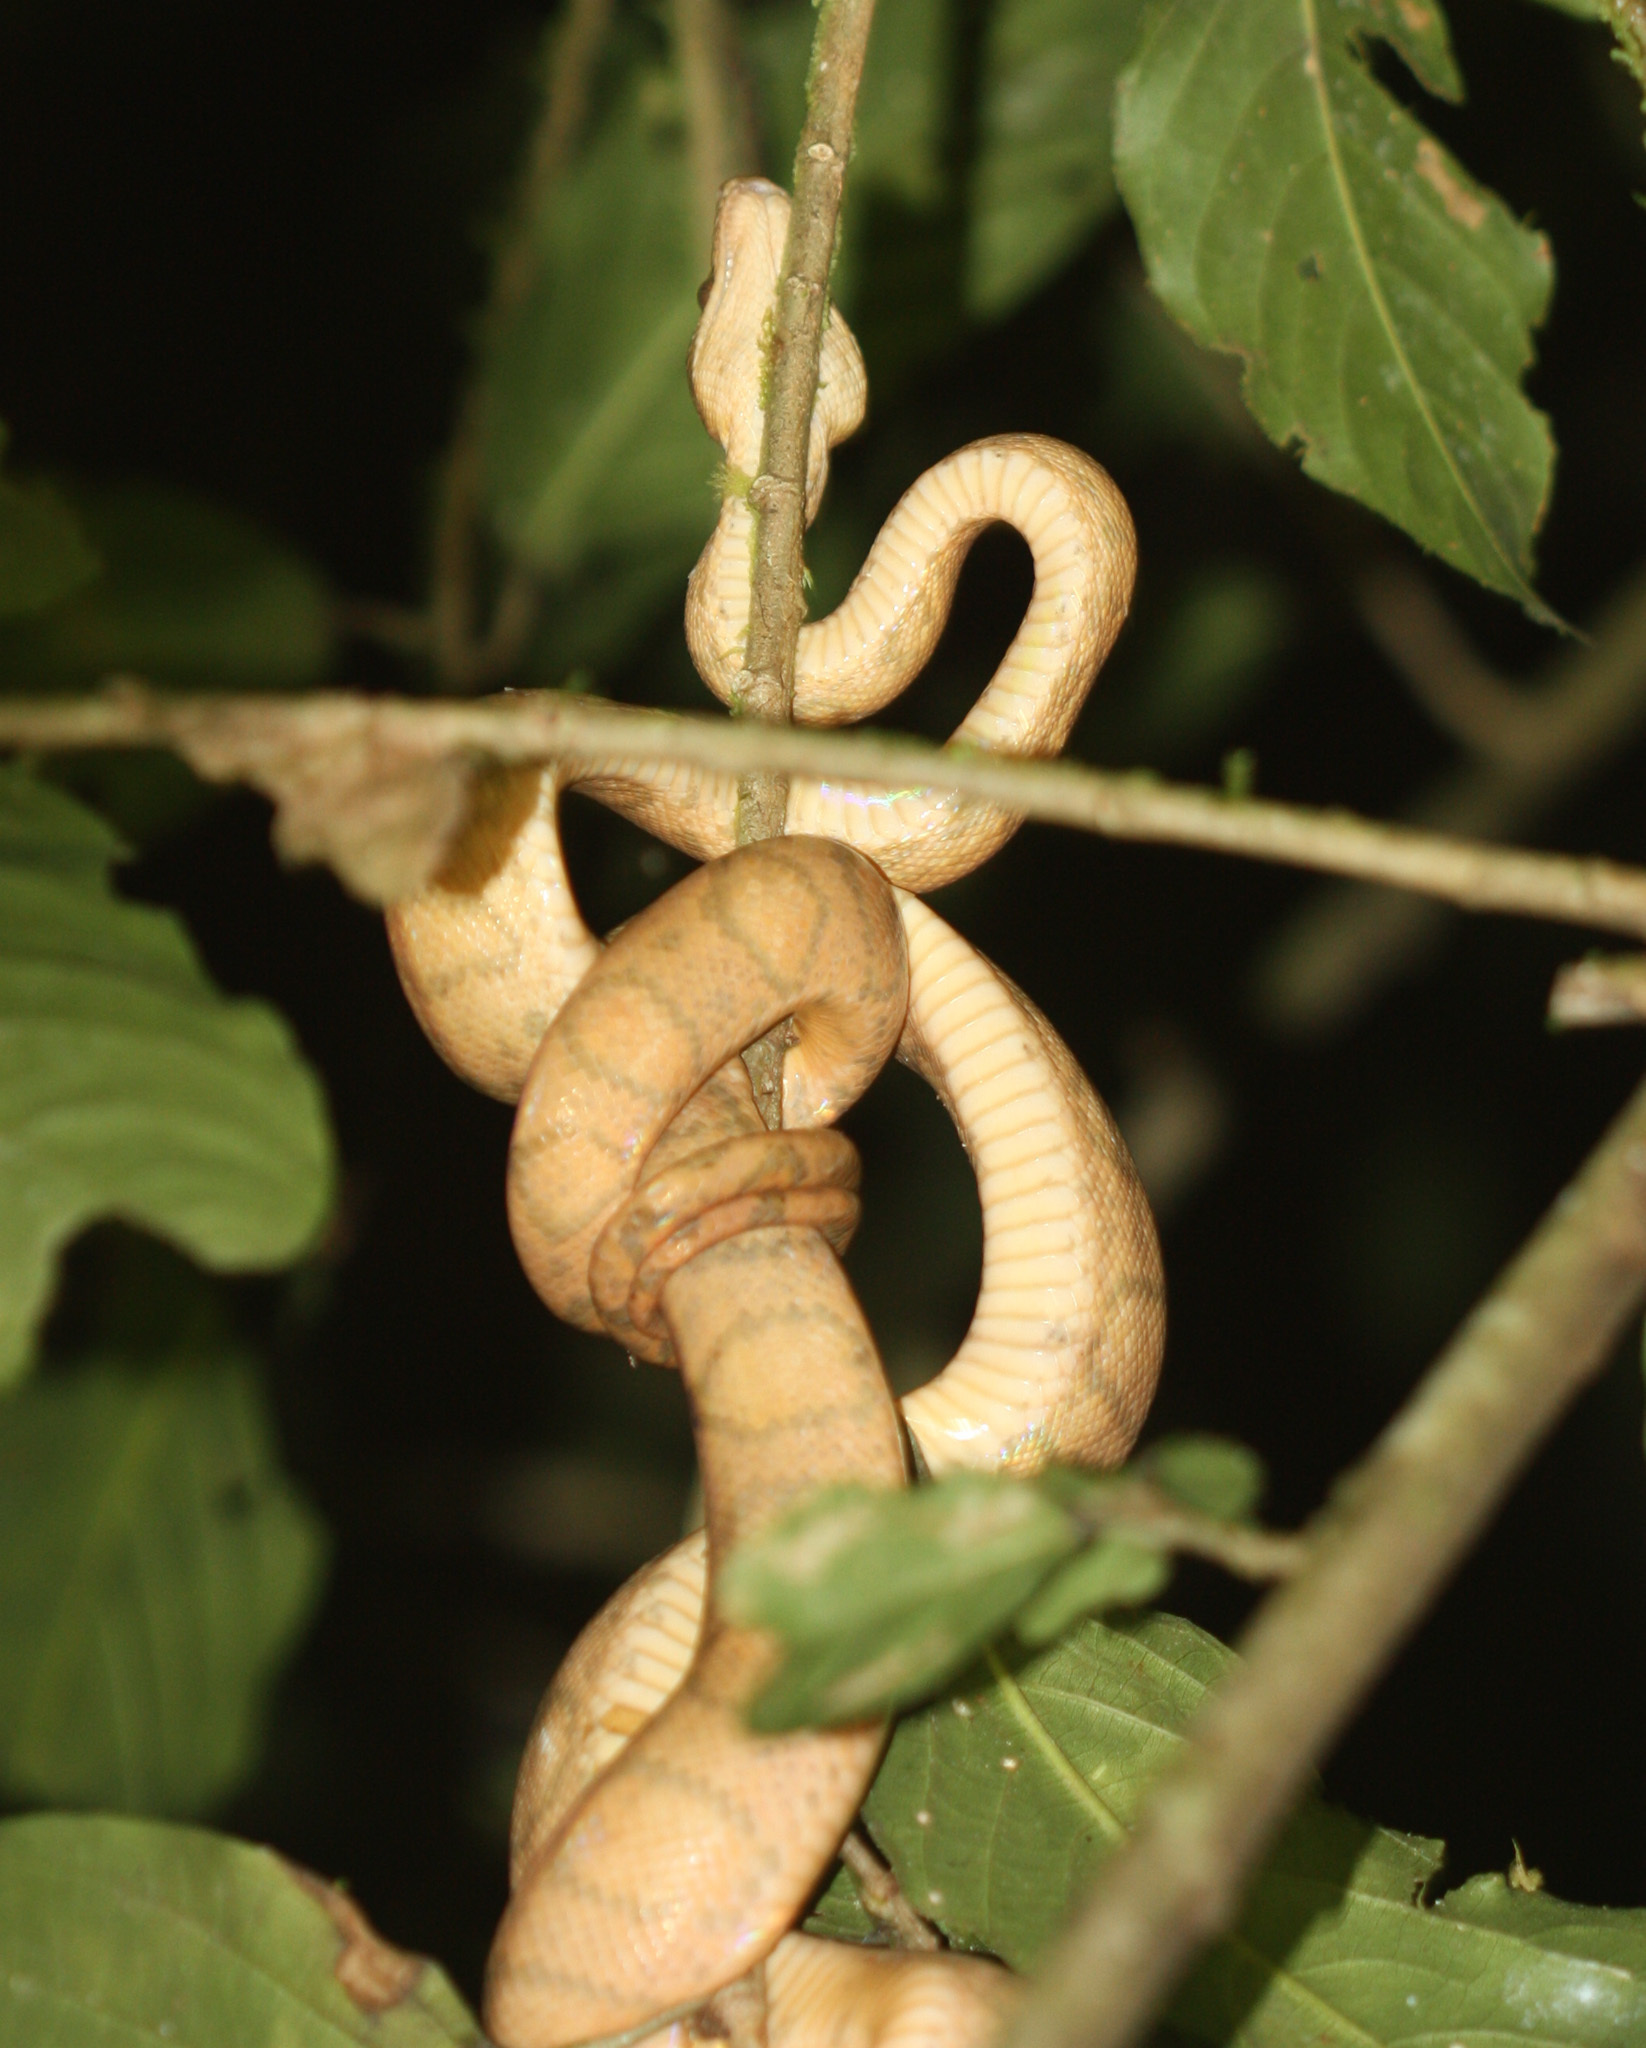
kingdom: Animalia
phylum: Chordata
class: Squamata
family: Boidae
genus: Corallus
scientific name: Corallus annulatus
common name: Ringed tree boa
